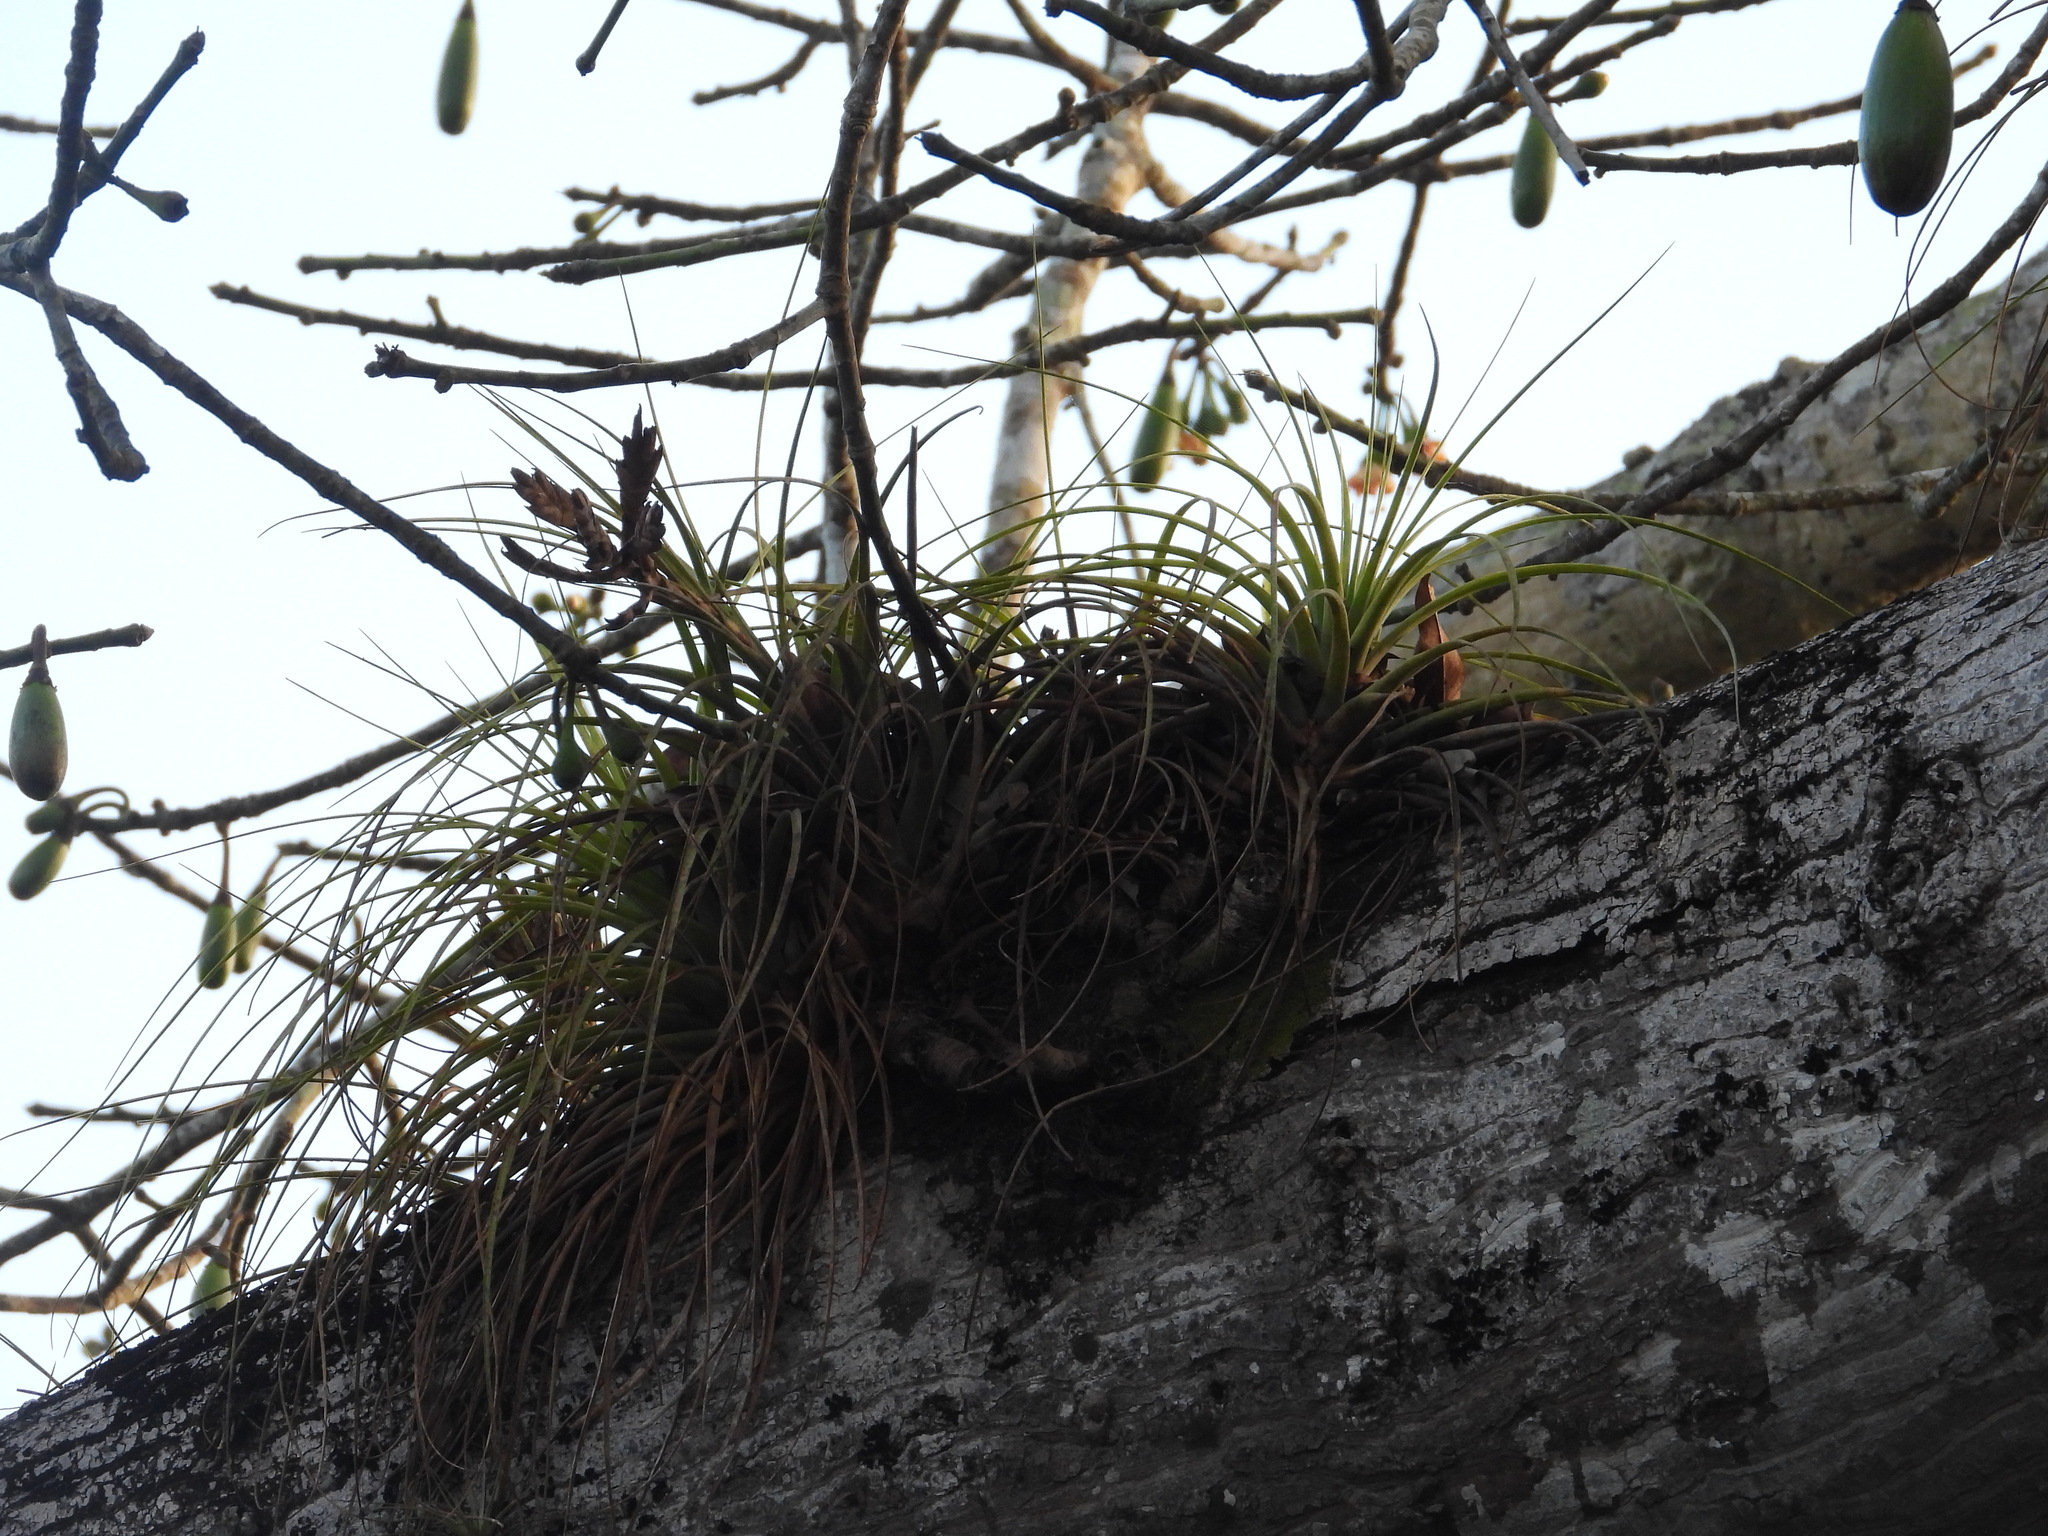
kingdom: Plantae
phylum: Tracheophyta
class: Liliopsida
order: Poales
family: Bromeliaceae
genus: Tillandsia
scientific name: Tillandsia fasciculata
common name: Giant airplant
